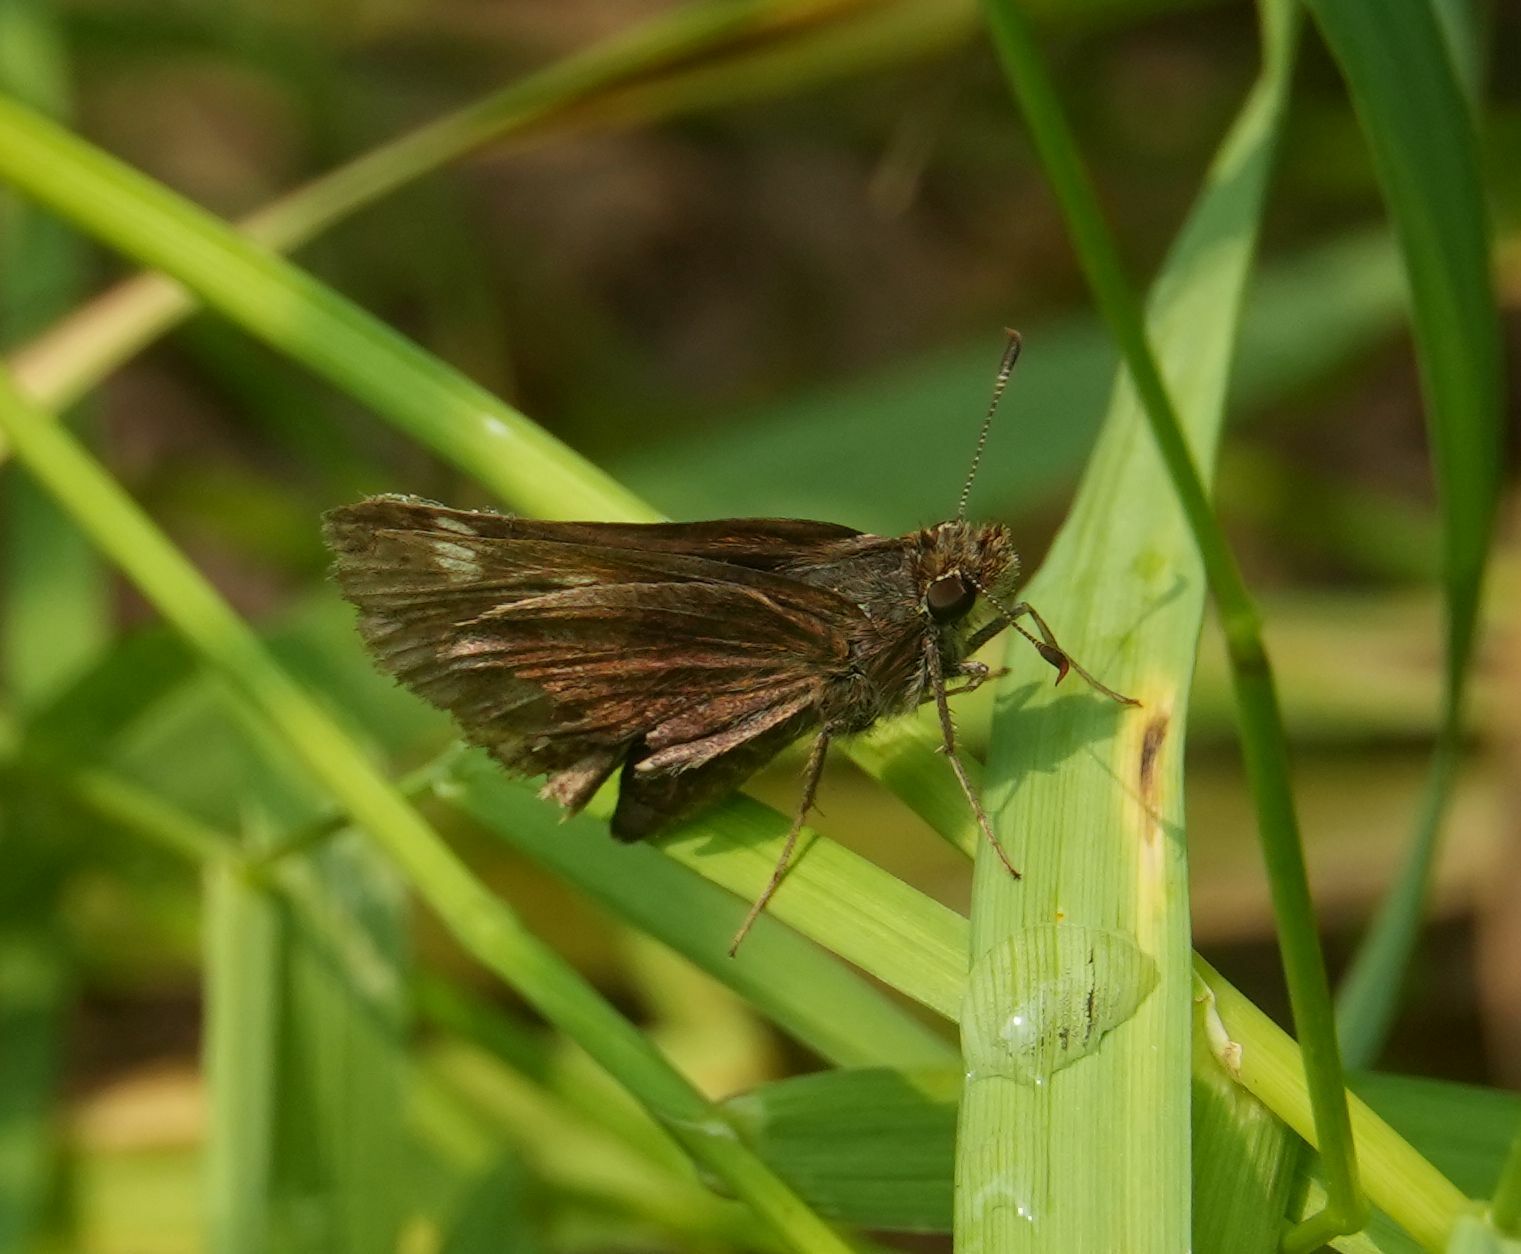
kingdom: Animalia
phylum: Arthropoda
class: Insecta
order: Lepidoptera
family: Hesperiidae
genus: Lon
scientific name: Lon hobomok
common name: Hobomok skipper
